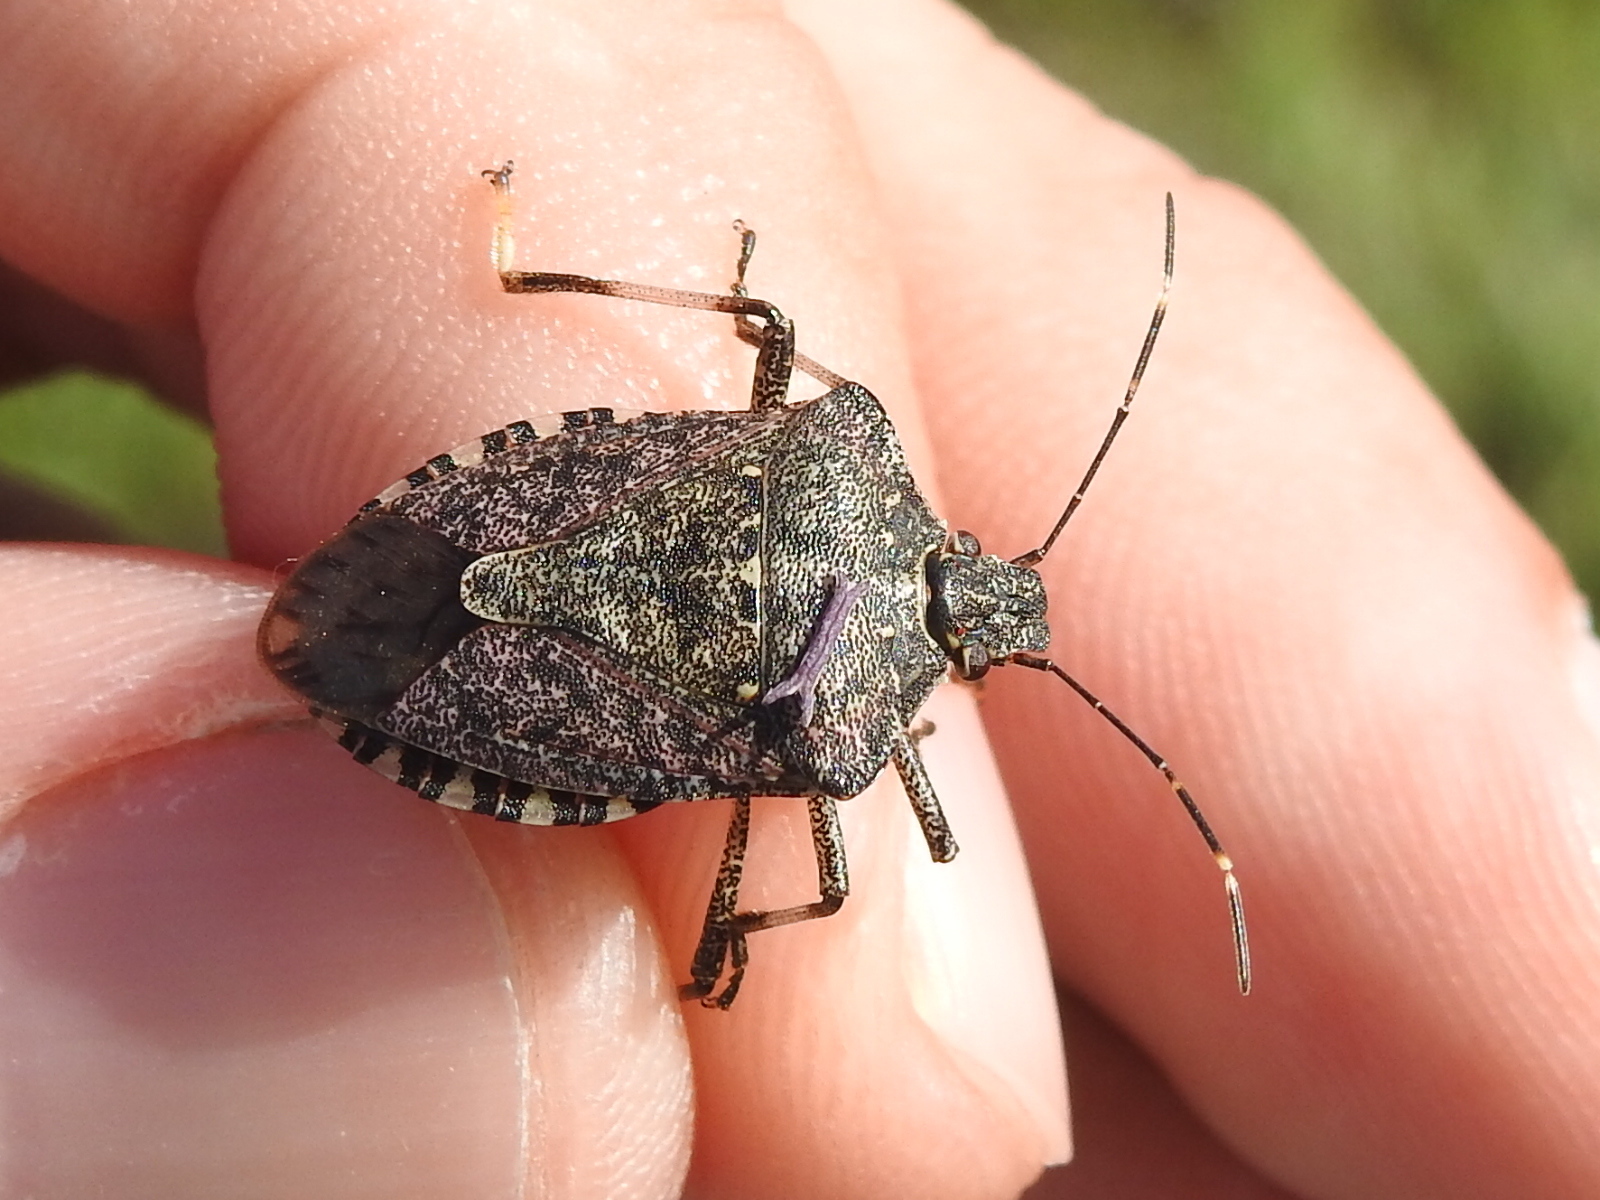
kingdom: Animalia
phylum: Arthropoda
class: Insecta
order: Hemiptera
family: Pentatomidae
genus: Halyomorpha
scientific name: Halyomorpha halys
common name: Brown marmorated stink bug
